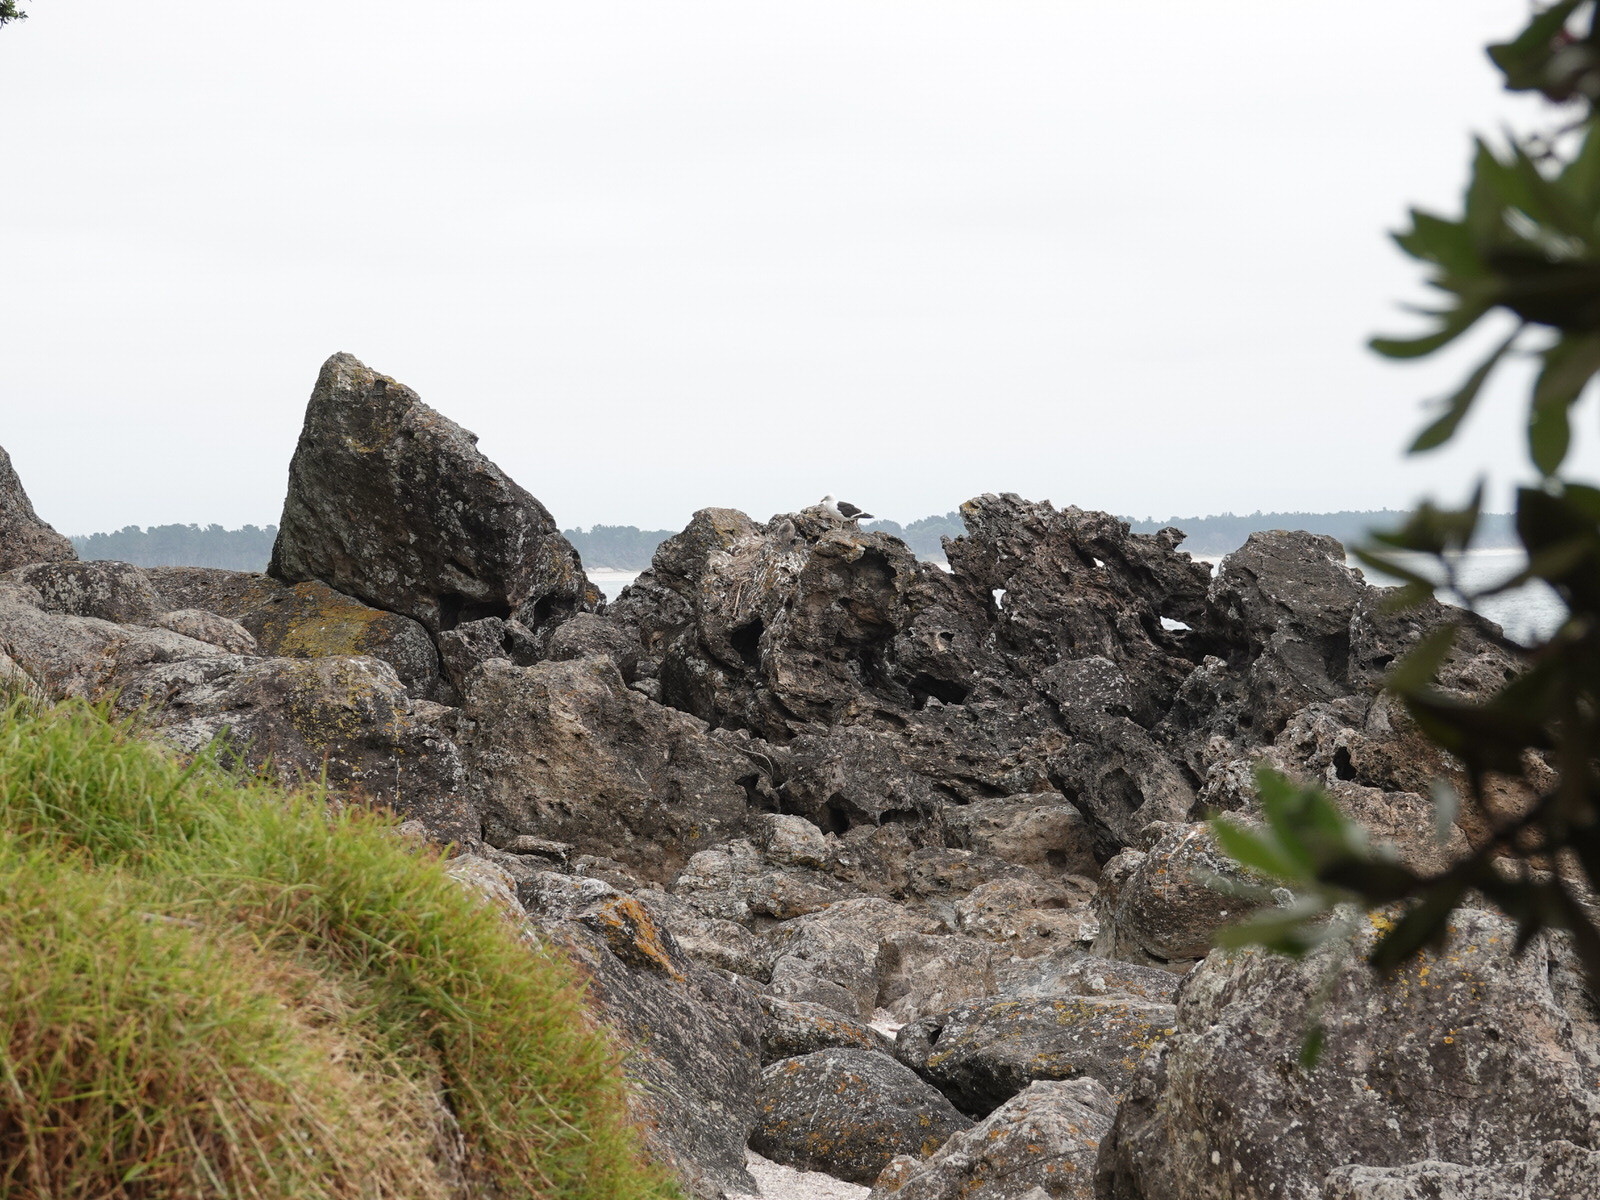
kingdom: Animalia
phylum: Chordata
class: Aves
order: Charadriiformes
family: Laridae
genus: Larus
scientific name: Larus dominicanus
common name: Kelp gull
